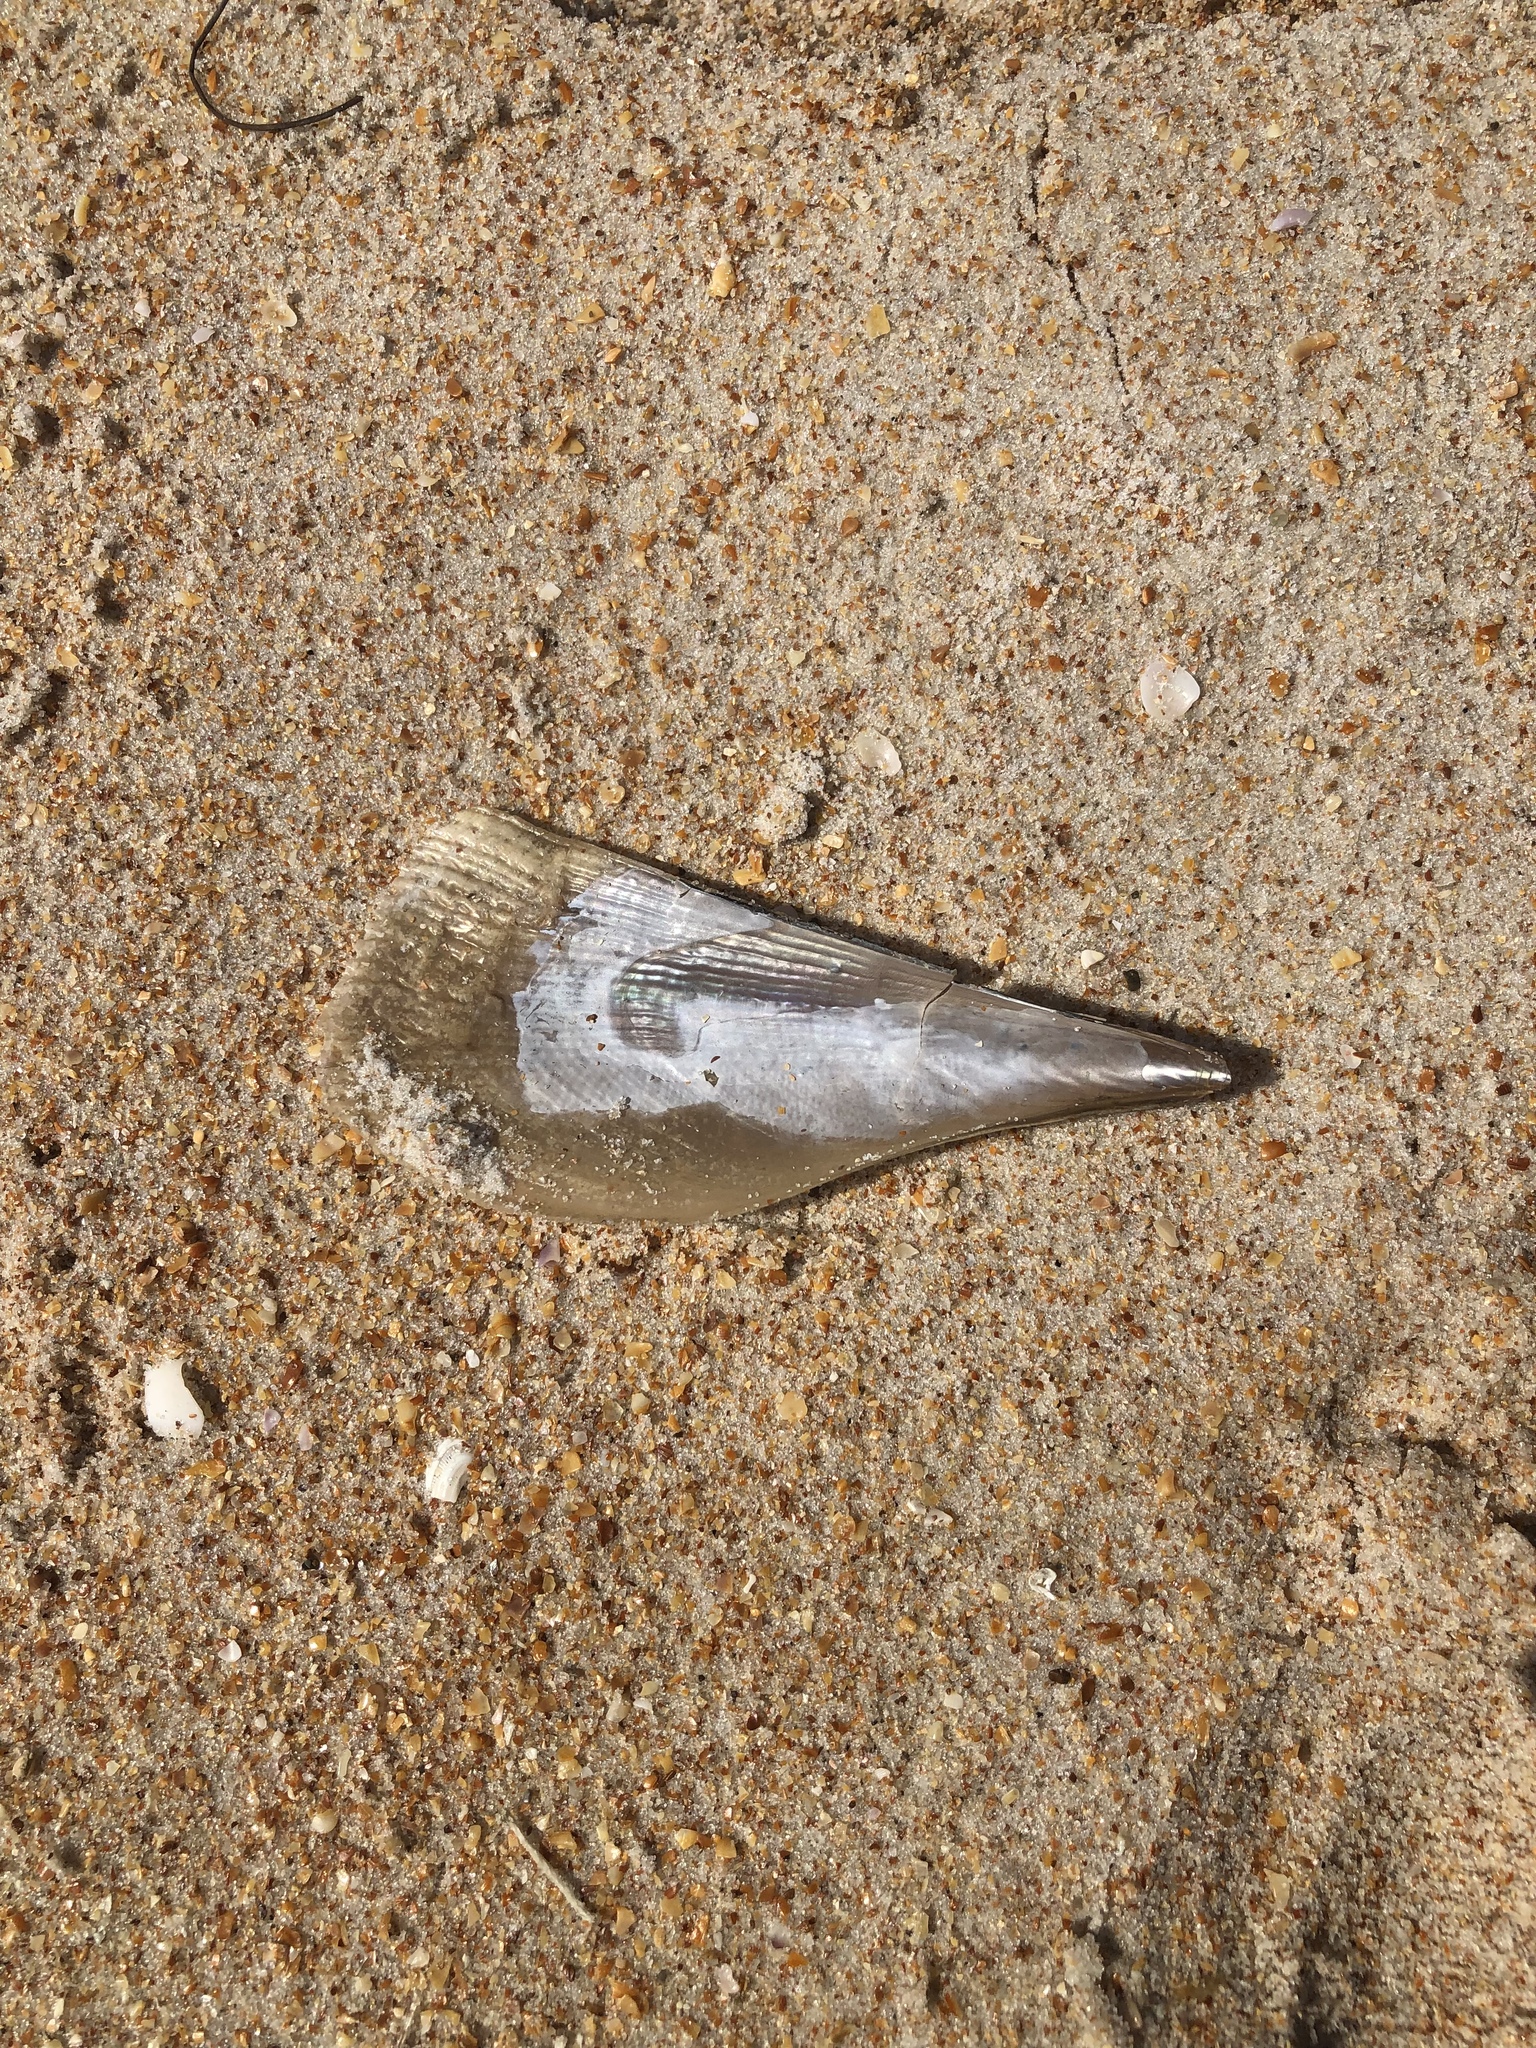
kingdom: Animalia
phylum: Mollusca
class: Bivalvia
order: Ostreida
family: Pinnidae
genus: Atrina
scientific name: Atrina serrata
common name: Saw-toothed penshell
